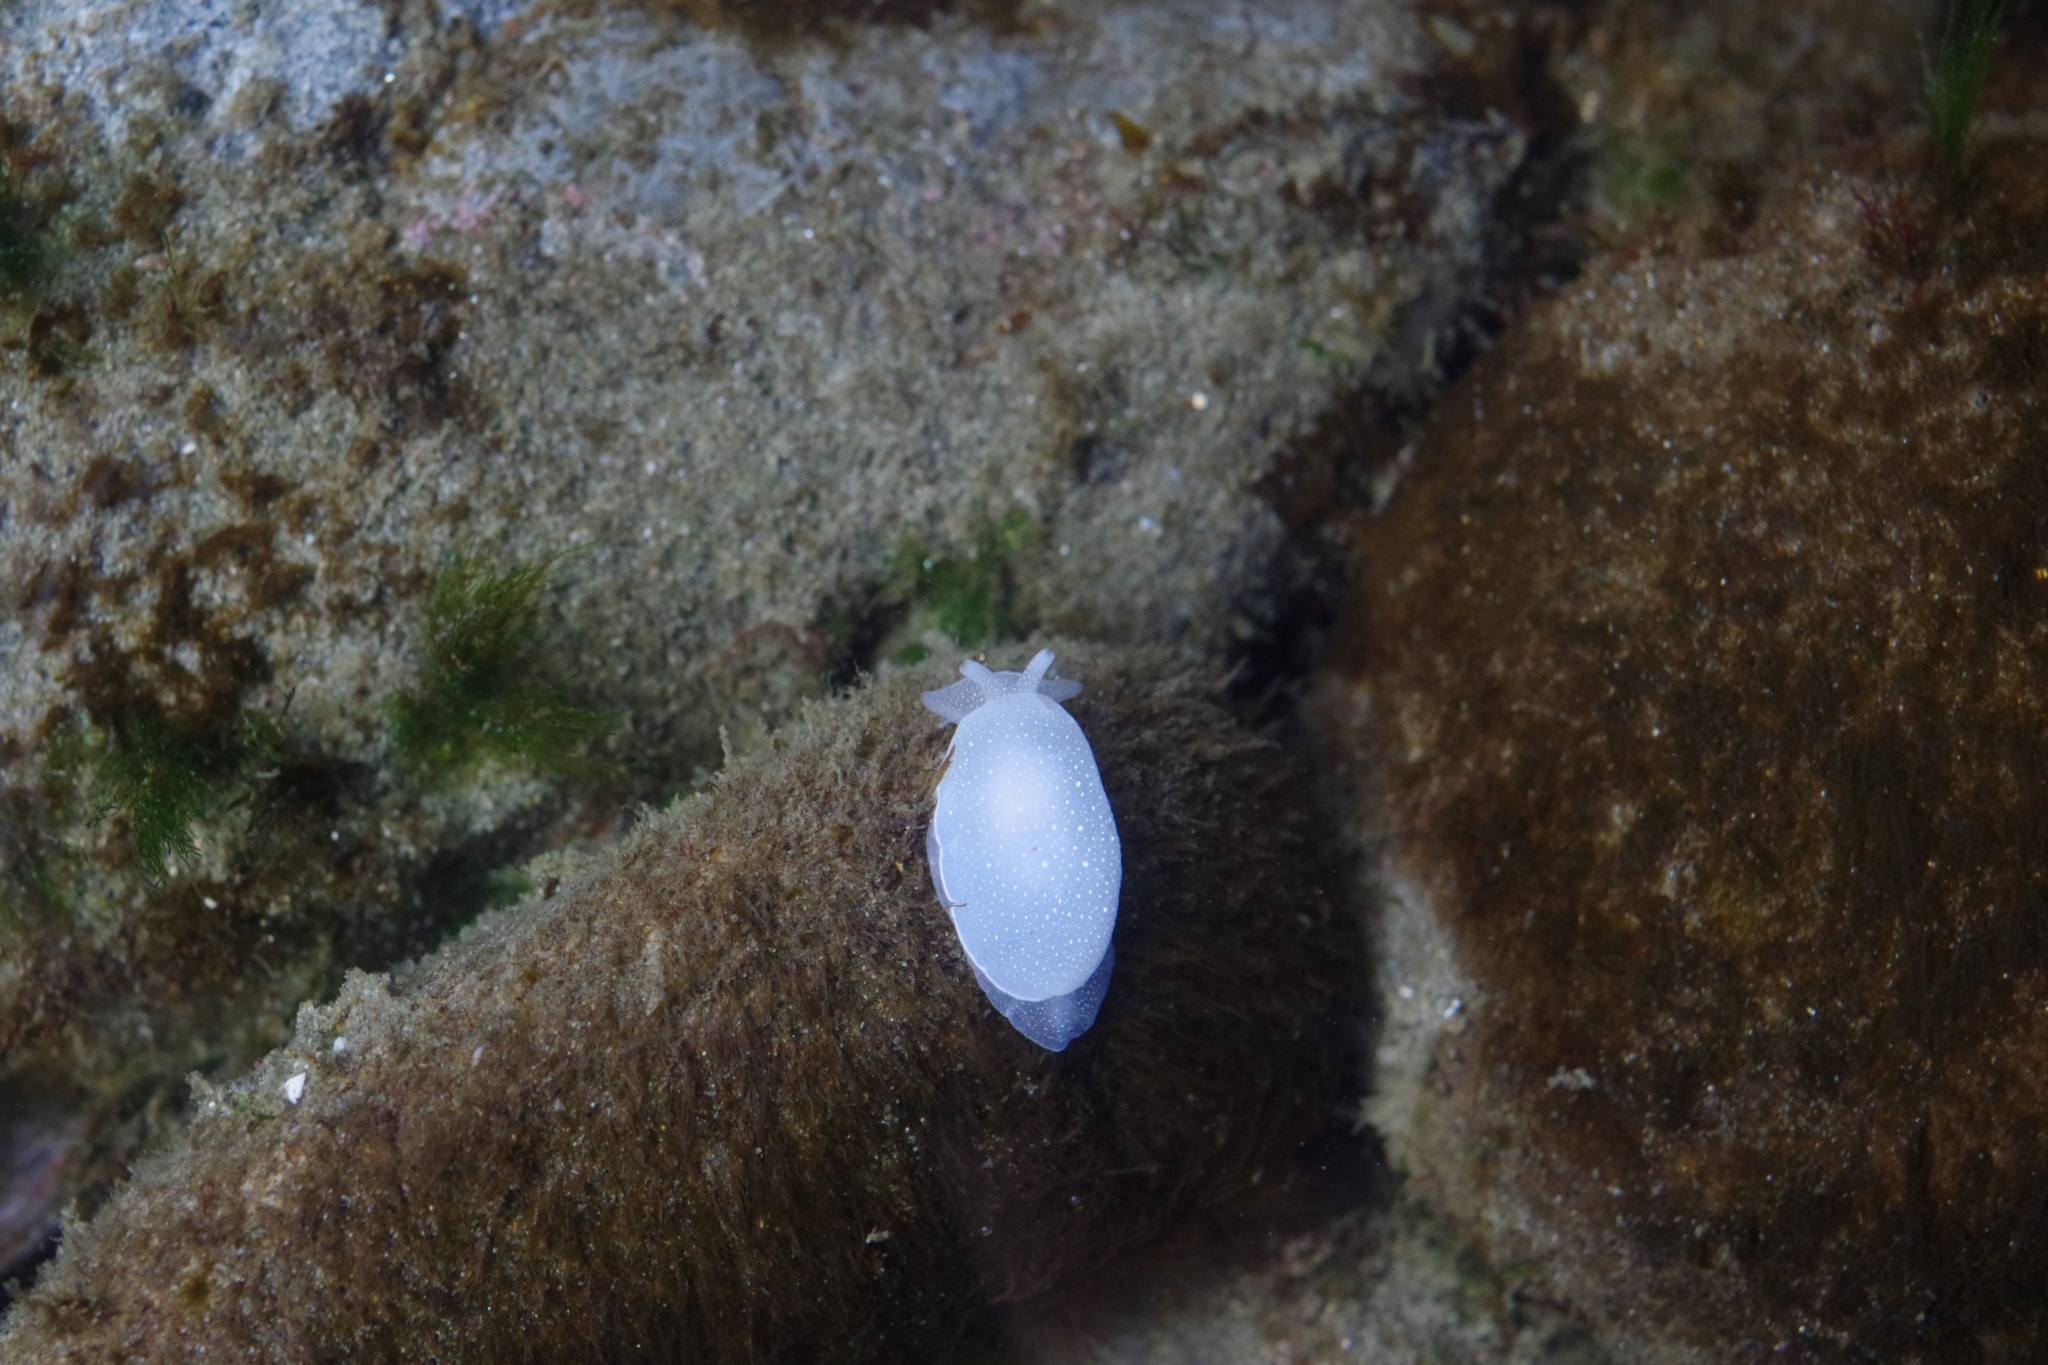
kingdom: Animalia
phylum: Mollusca
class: Gastropoda
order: Pleurobranchida
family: Pleurobranchidae
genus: Boreoberthella
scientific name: Boreoberthella
